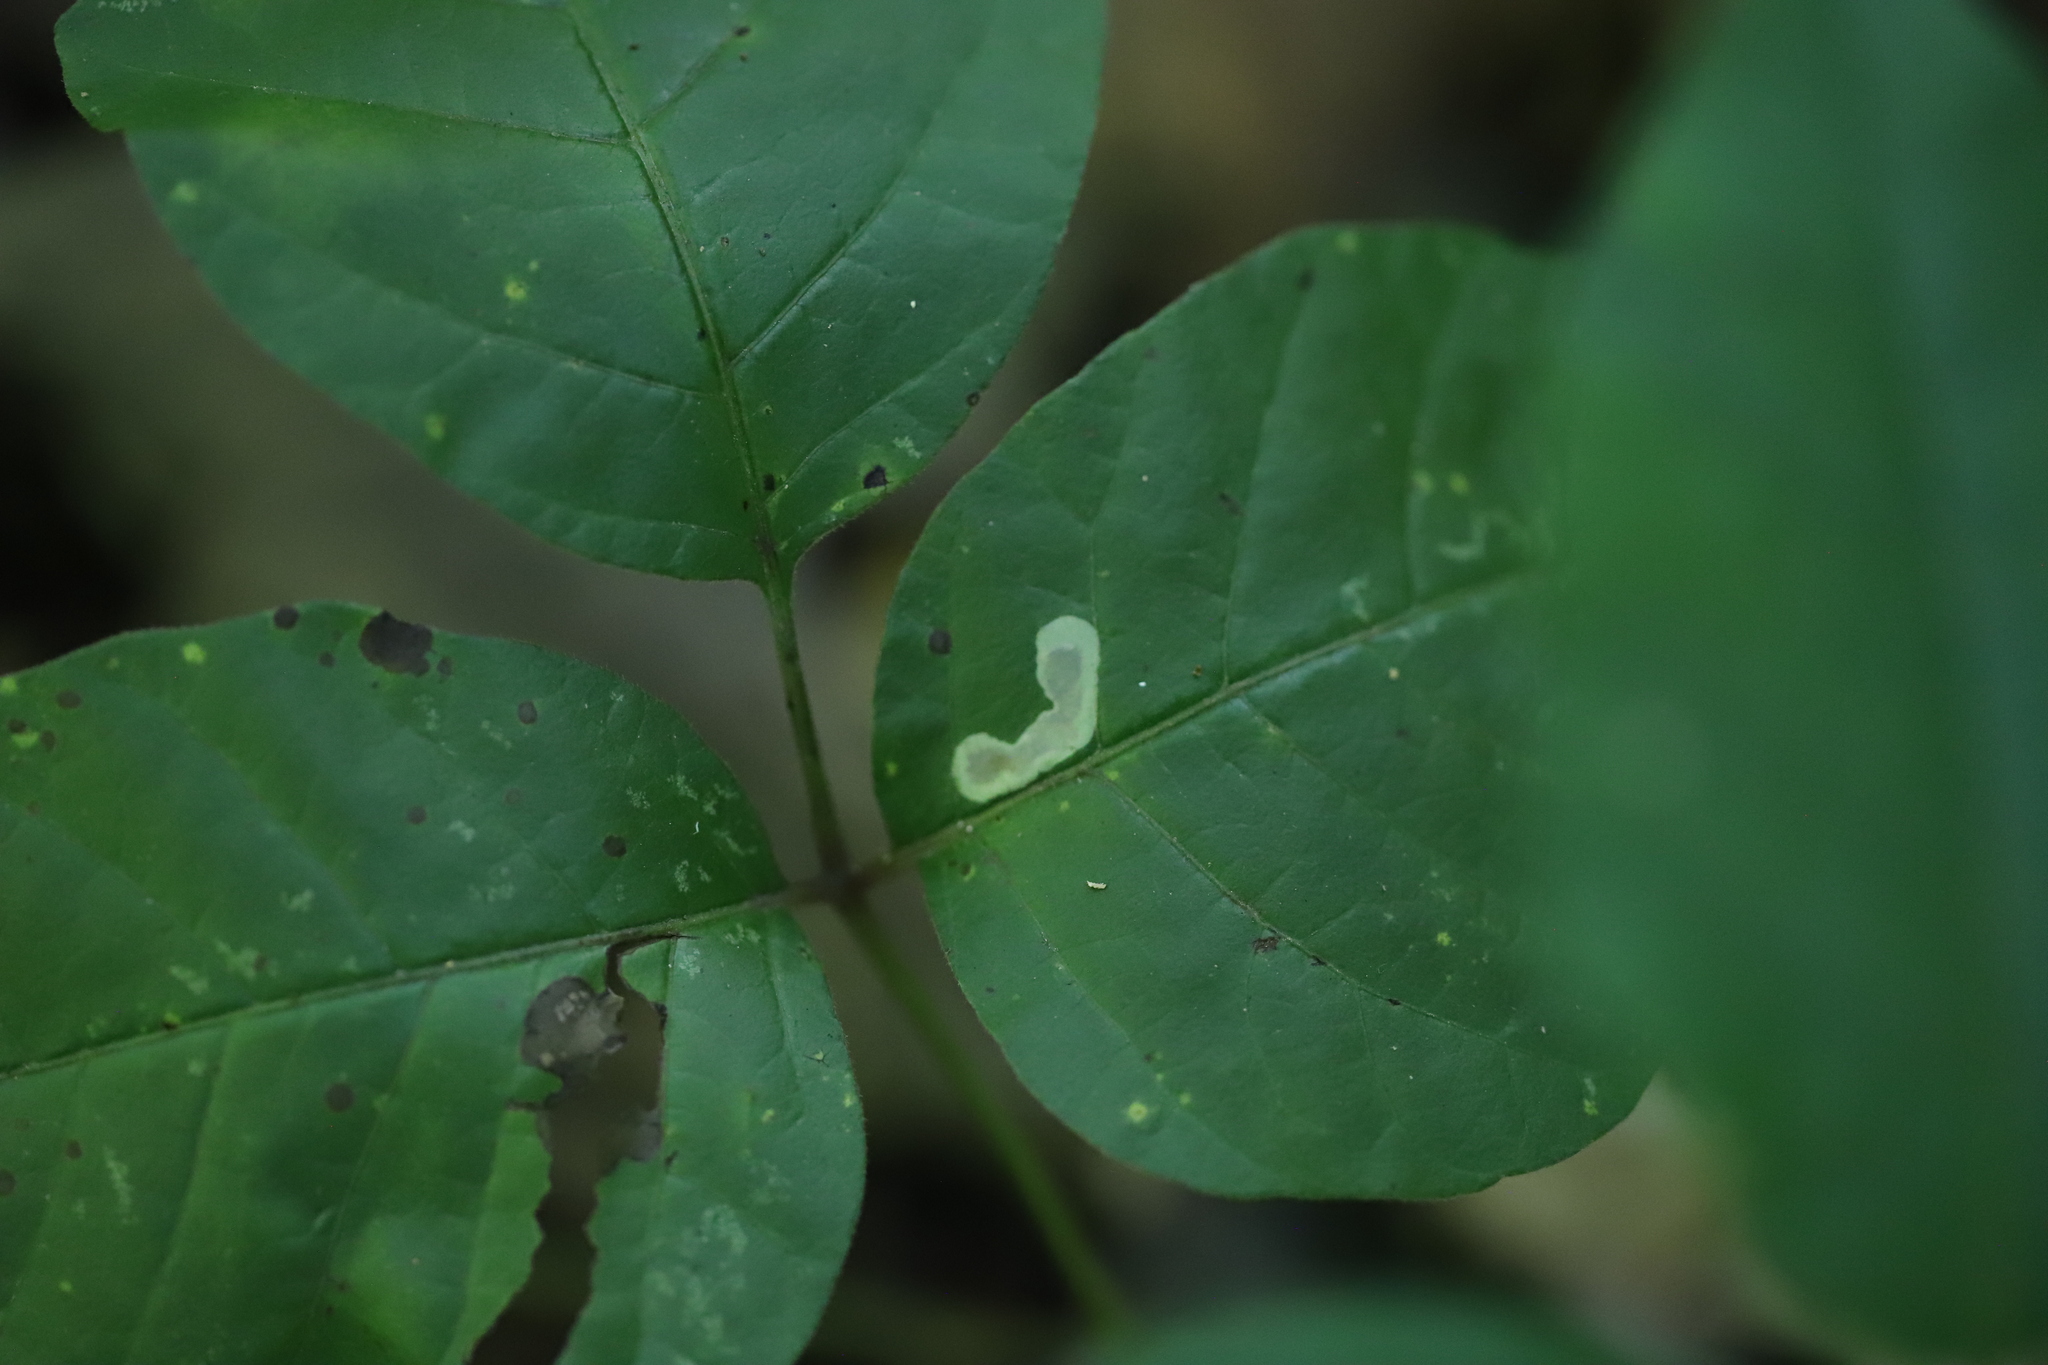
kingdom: Animalia
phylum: Arthropoda
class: Insecta
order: Lepidoptera
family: Gracillariidae
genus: Cameraria
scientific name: Cameraria guttifinitella
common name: Poison ivy leaf-miner moth
